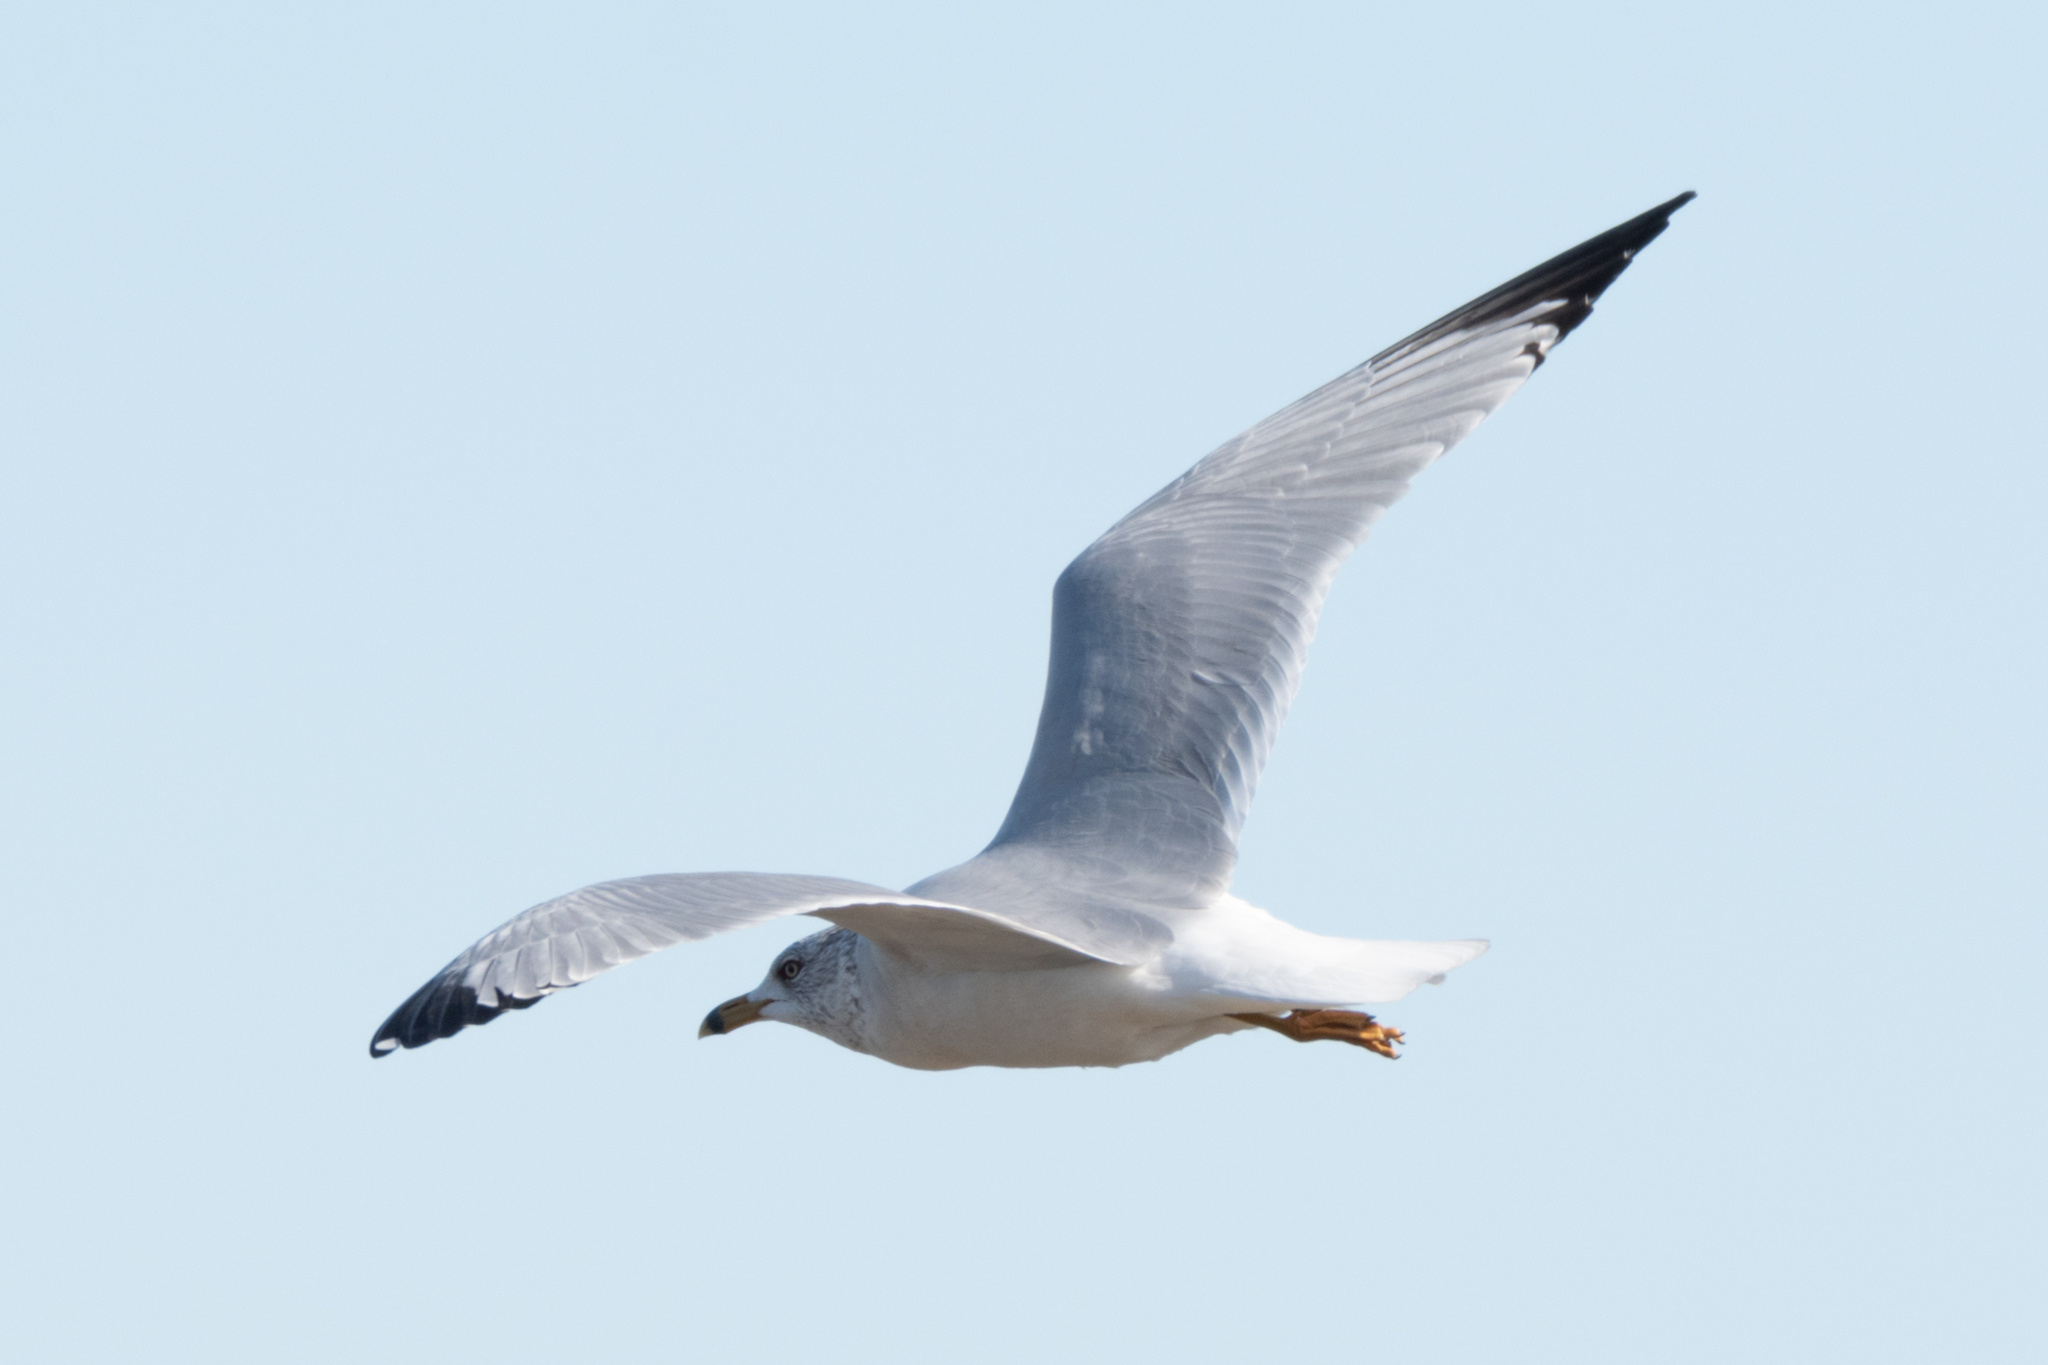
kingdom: Animalia
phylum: Chordata
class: Aves
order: Charadriiformes
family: Laridae
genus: Larus
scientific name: Larus delawarensis
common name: Ring-billed gull
